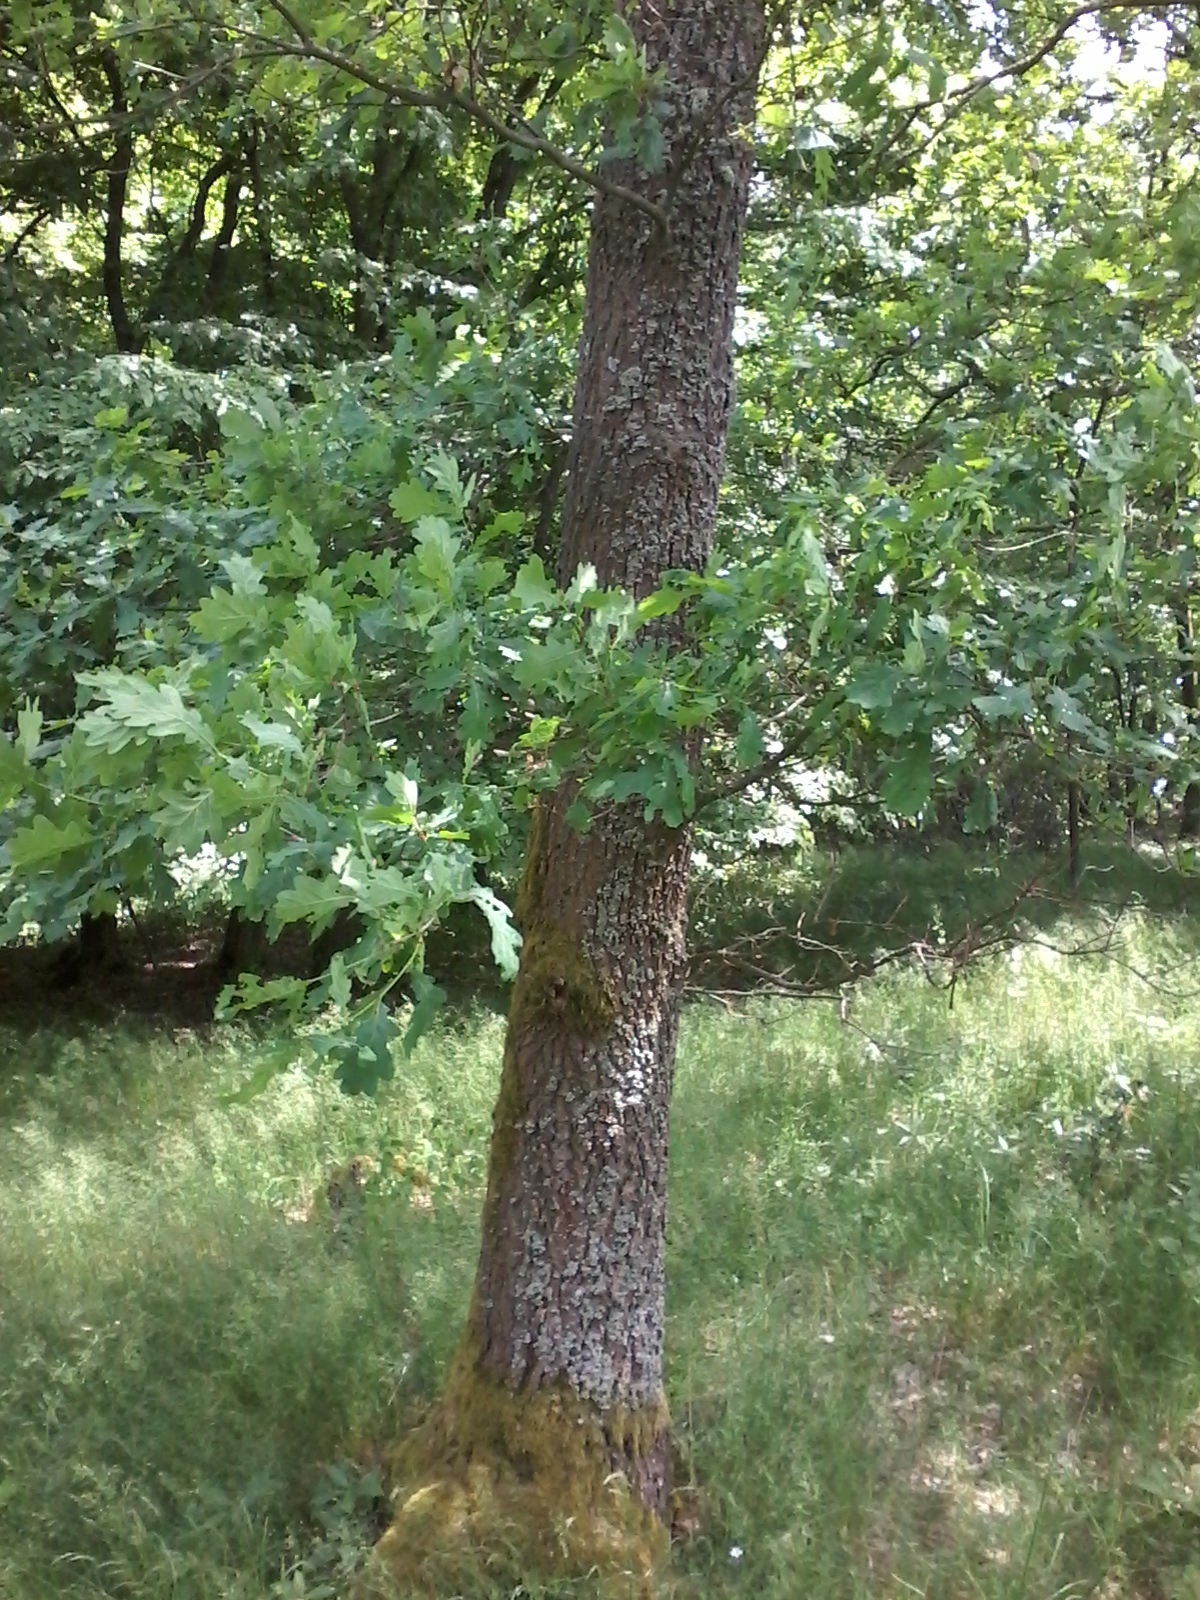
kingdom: Plantae
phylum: Tracheophyta
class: Magnoliopsida
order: Fagales
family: Fagaceae
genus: Quercus
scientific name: Quercus robur
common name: Pedunculate oak
